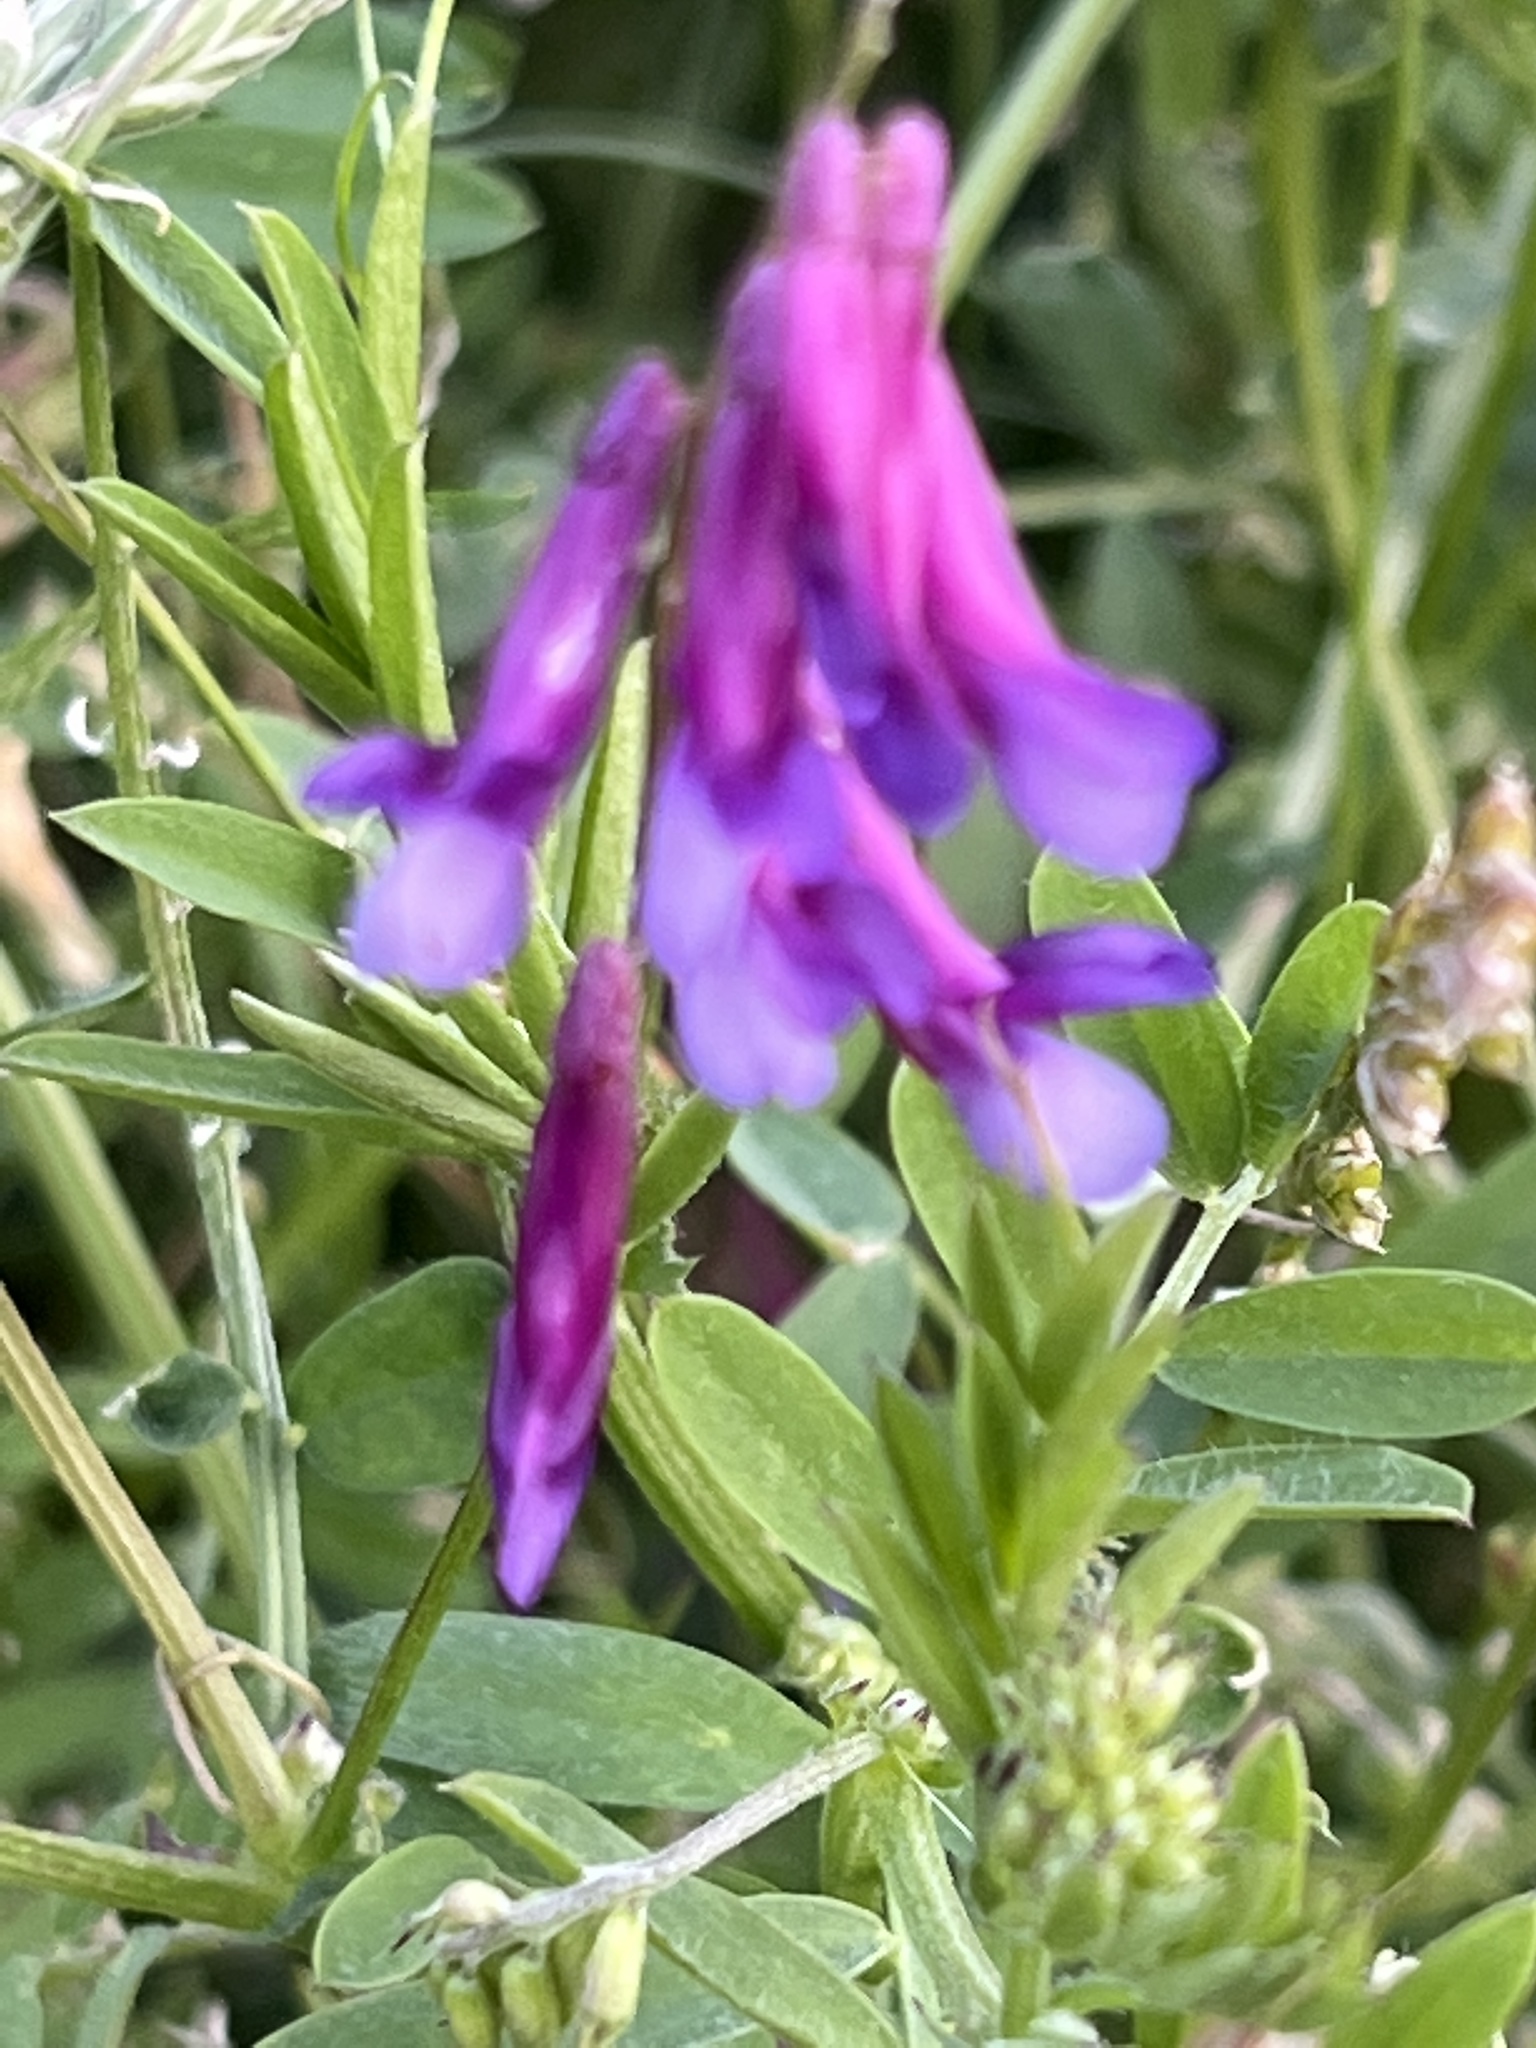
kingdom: Plantae
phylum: Tracheophyta
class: Magnoliopsida
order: Fabales
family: Fabaceae
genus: Vicia
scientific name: Vicia villosa
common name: Fodder vetch
